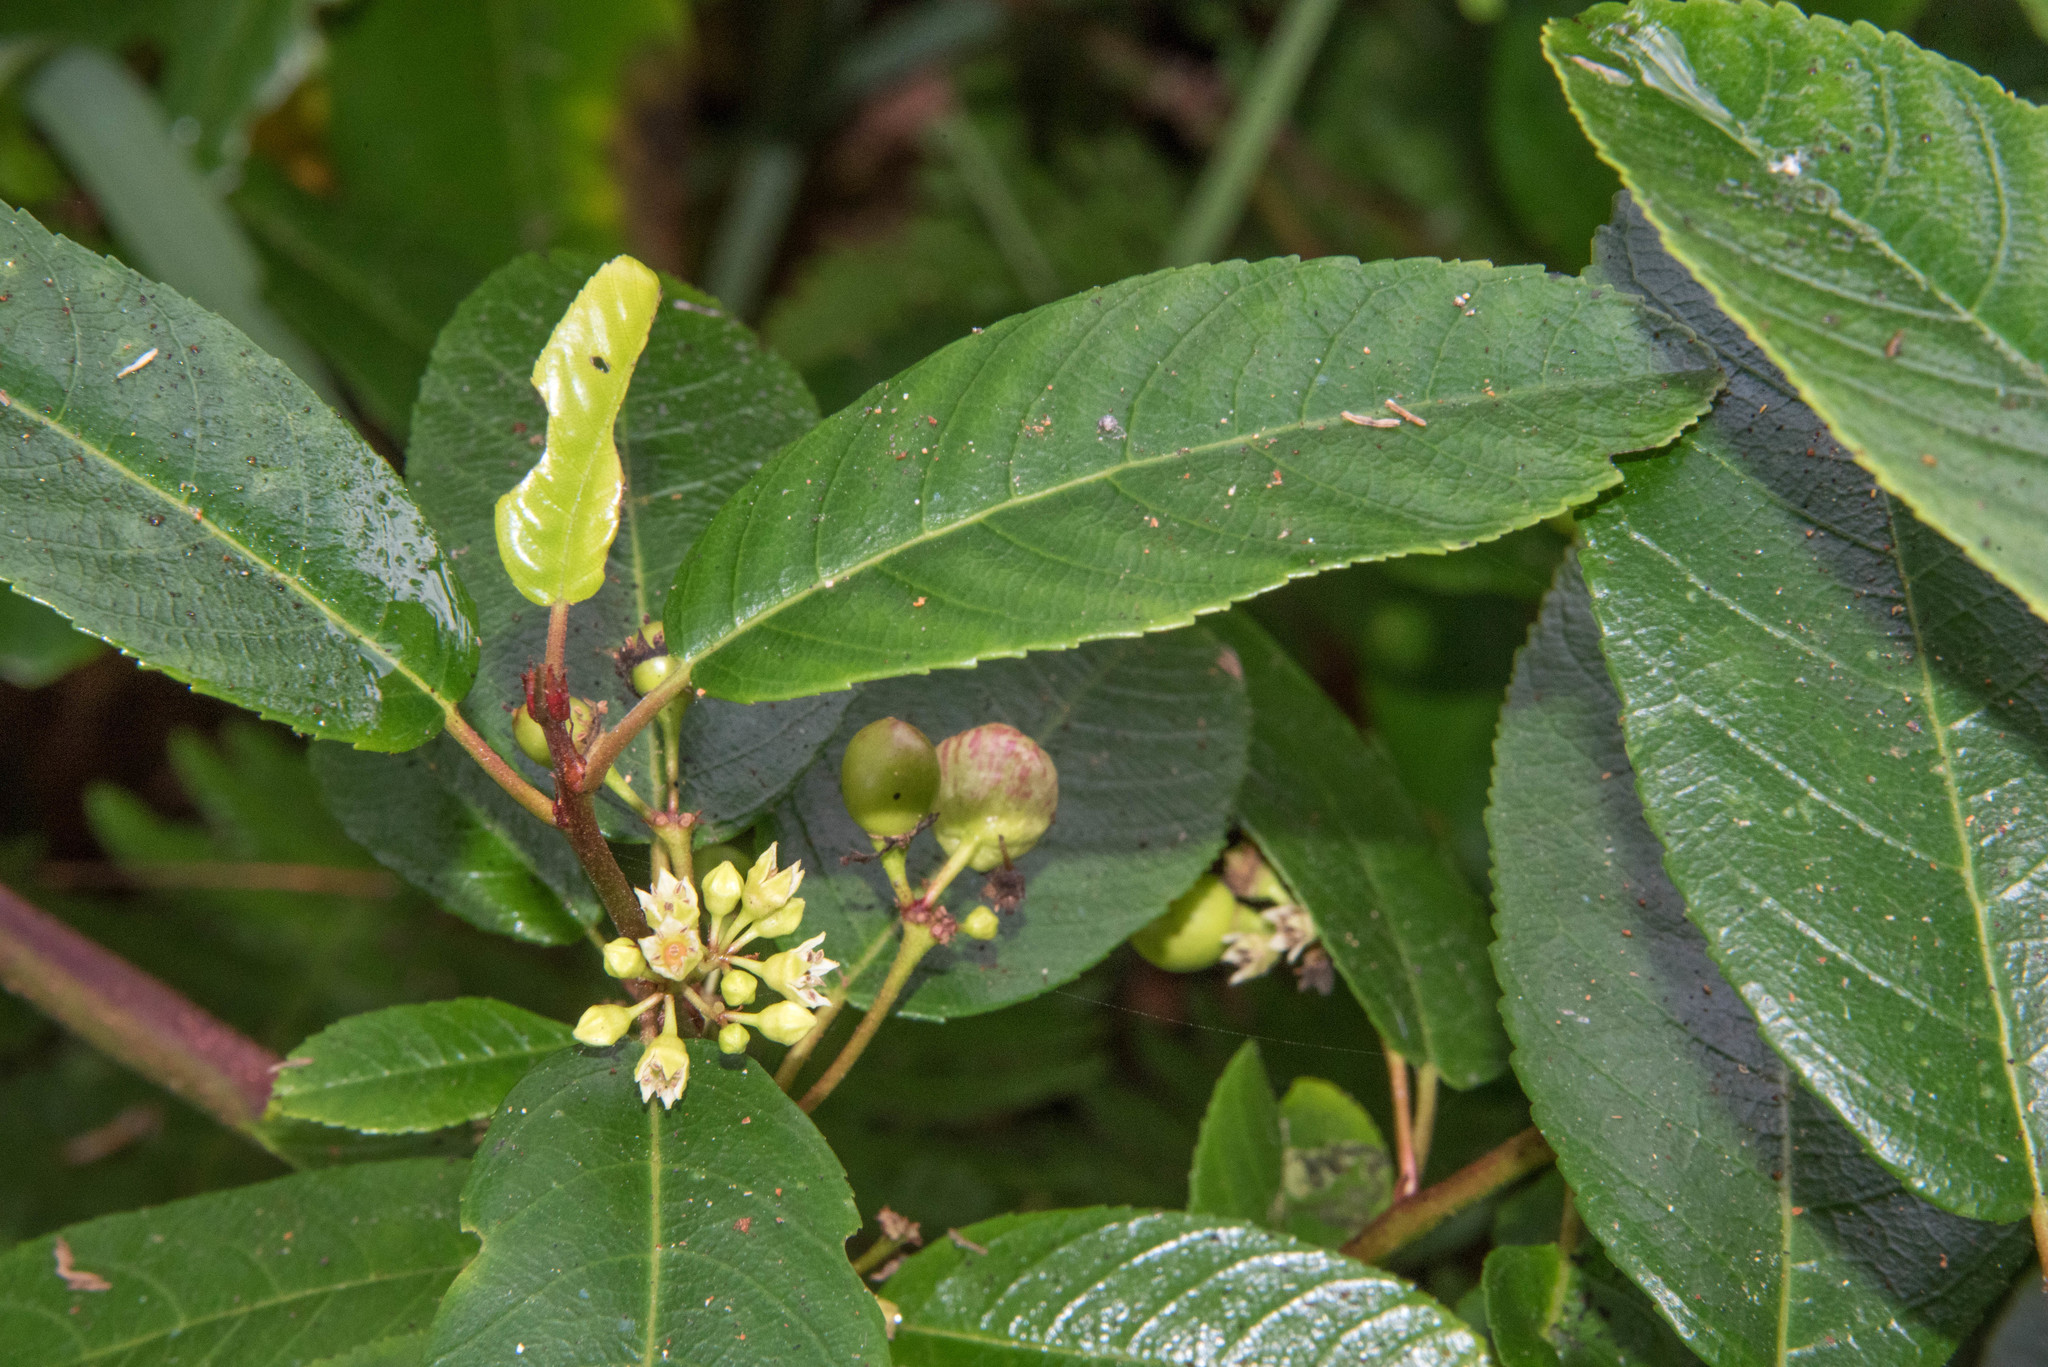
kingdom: Plantae
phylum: Tracheophyta
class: Magnoliopsida
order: Rosales
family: Rhamnaceae
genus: Frangula
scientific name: Frangula californica
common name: California buckthorn
